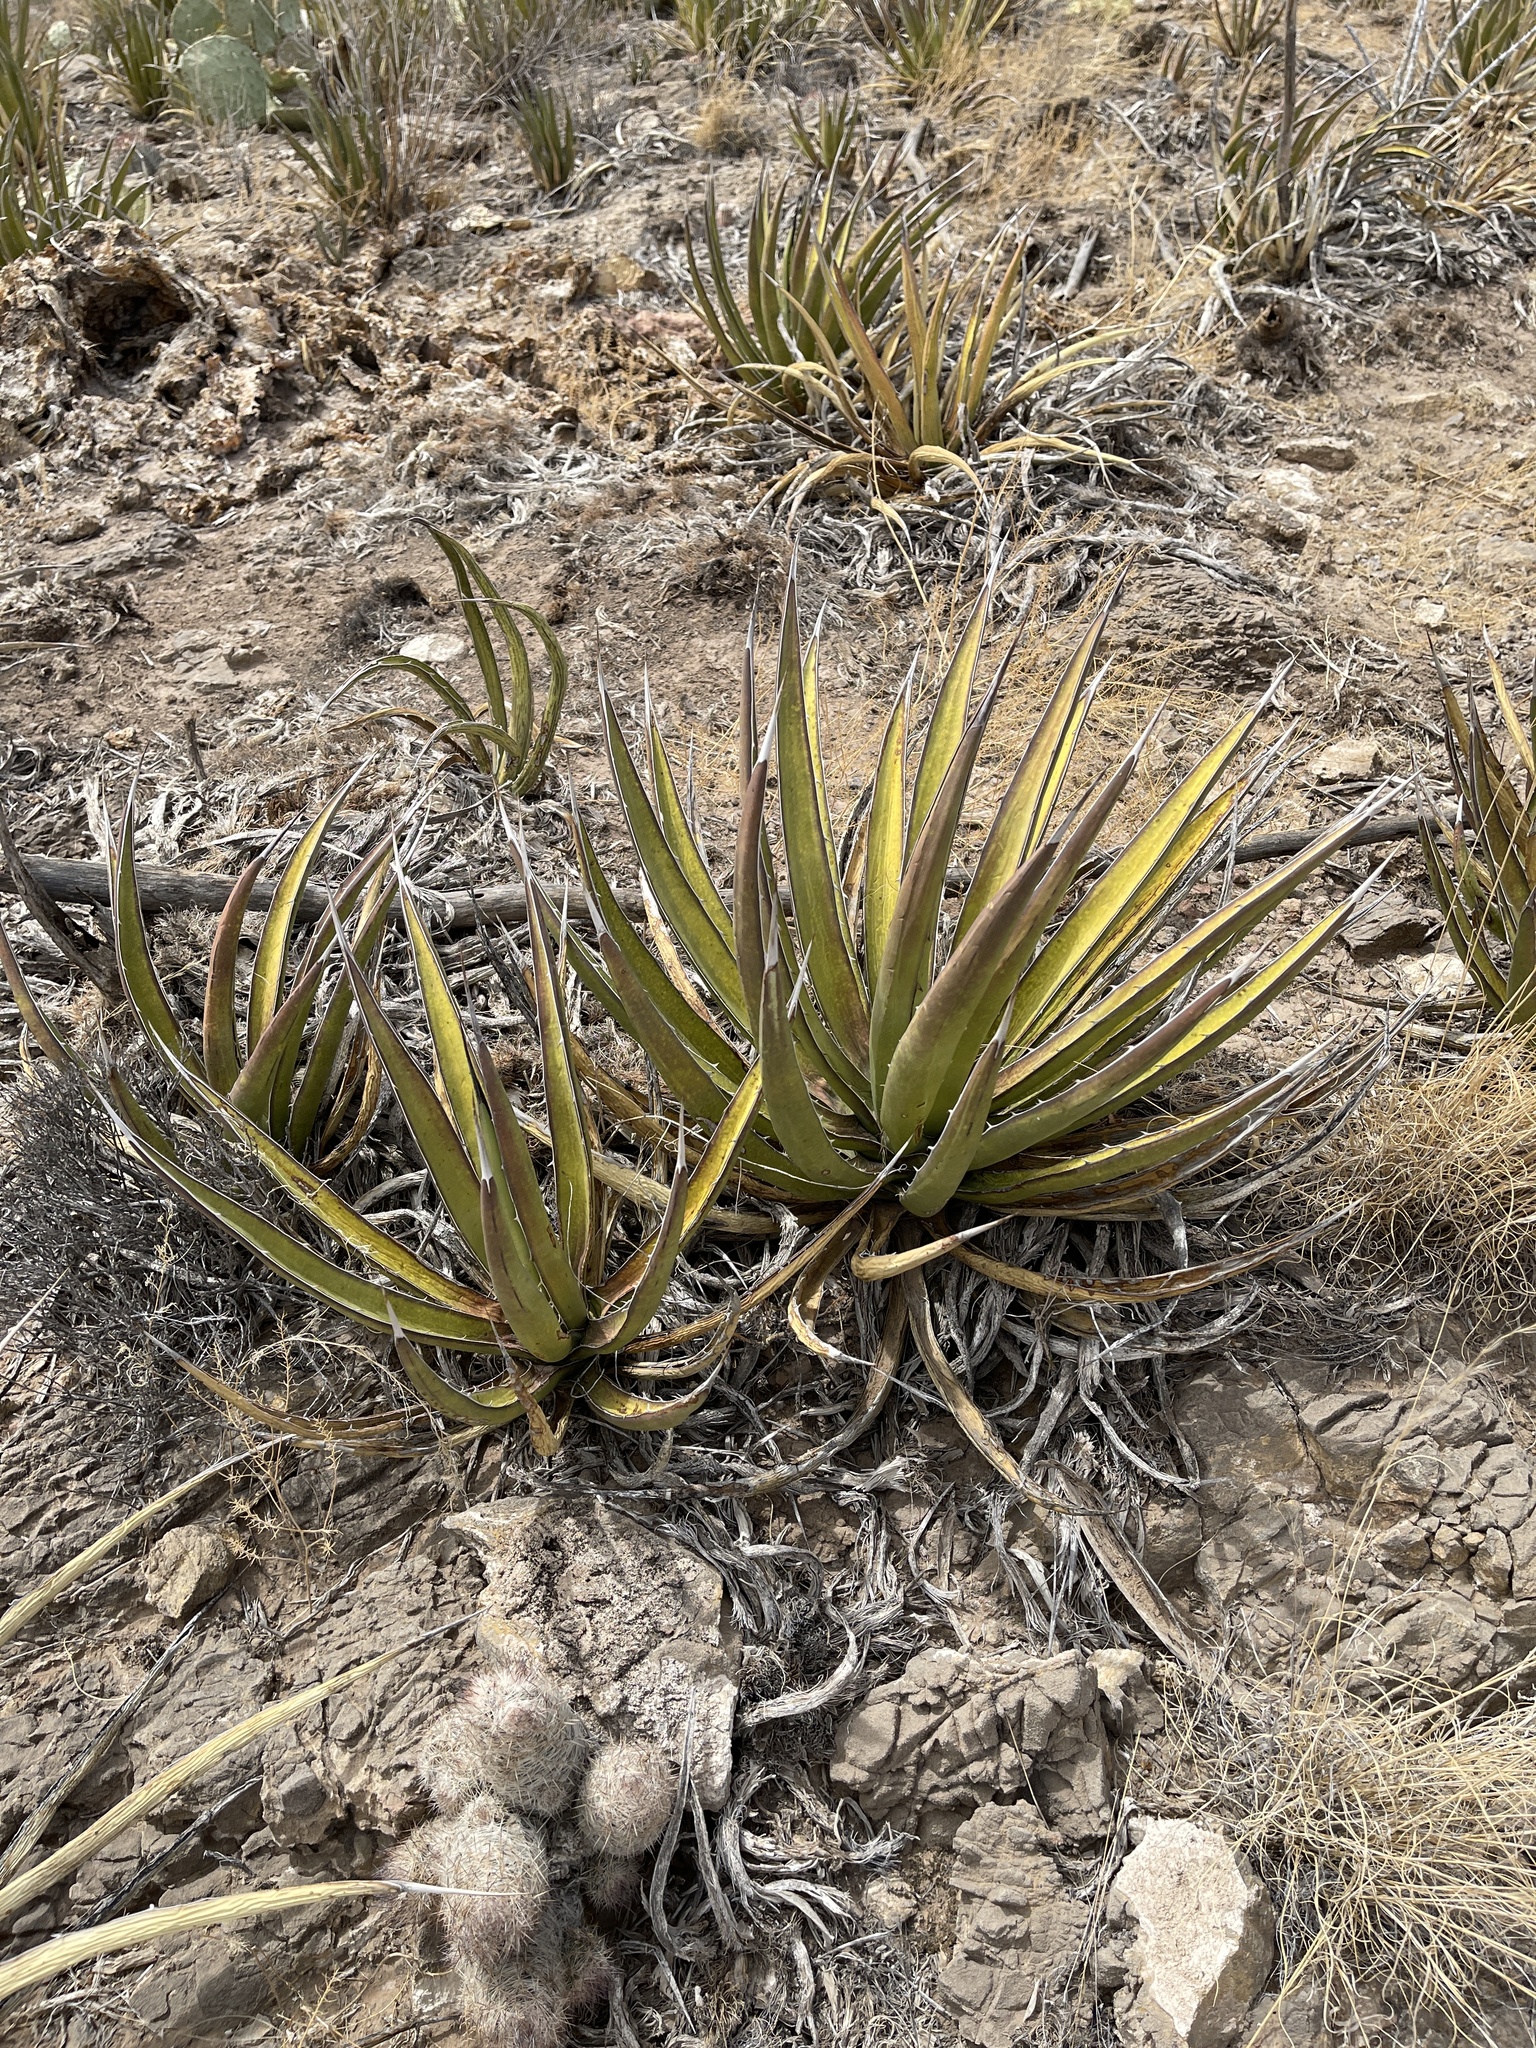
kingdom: Plantae
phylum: Tracheophyta
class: Liliopsida
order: Asparagales
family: Asparagaceae
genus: Agave
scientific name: Agave lechuguilla
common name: Lecheguilla agave
